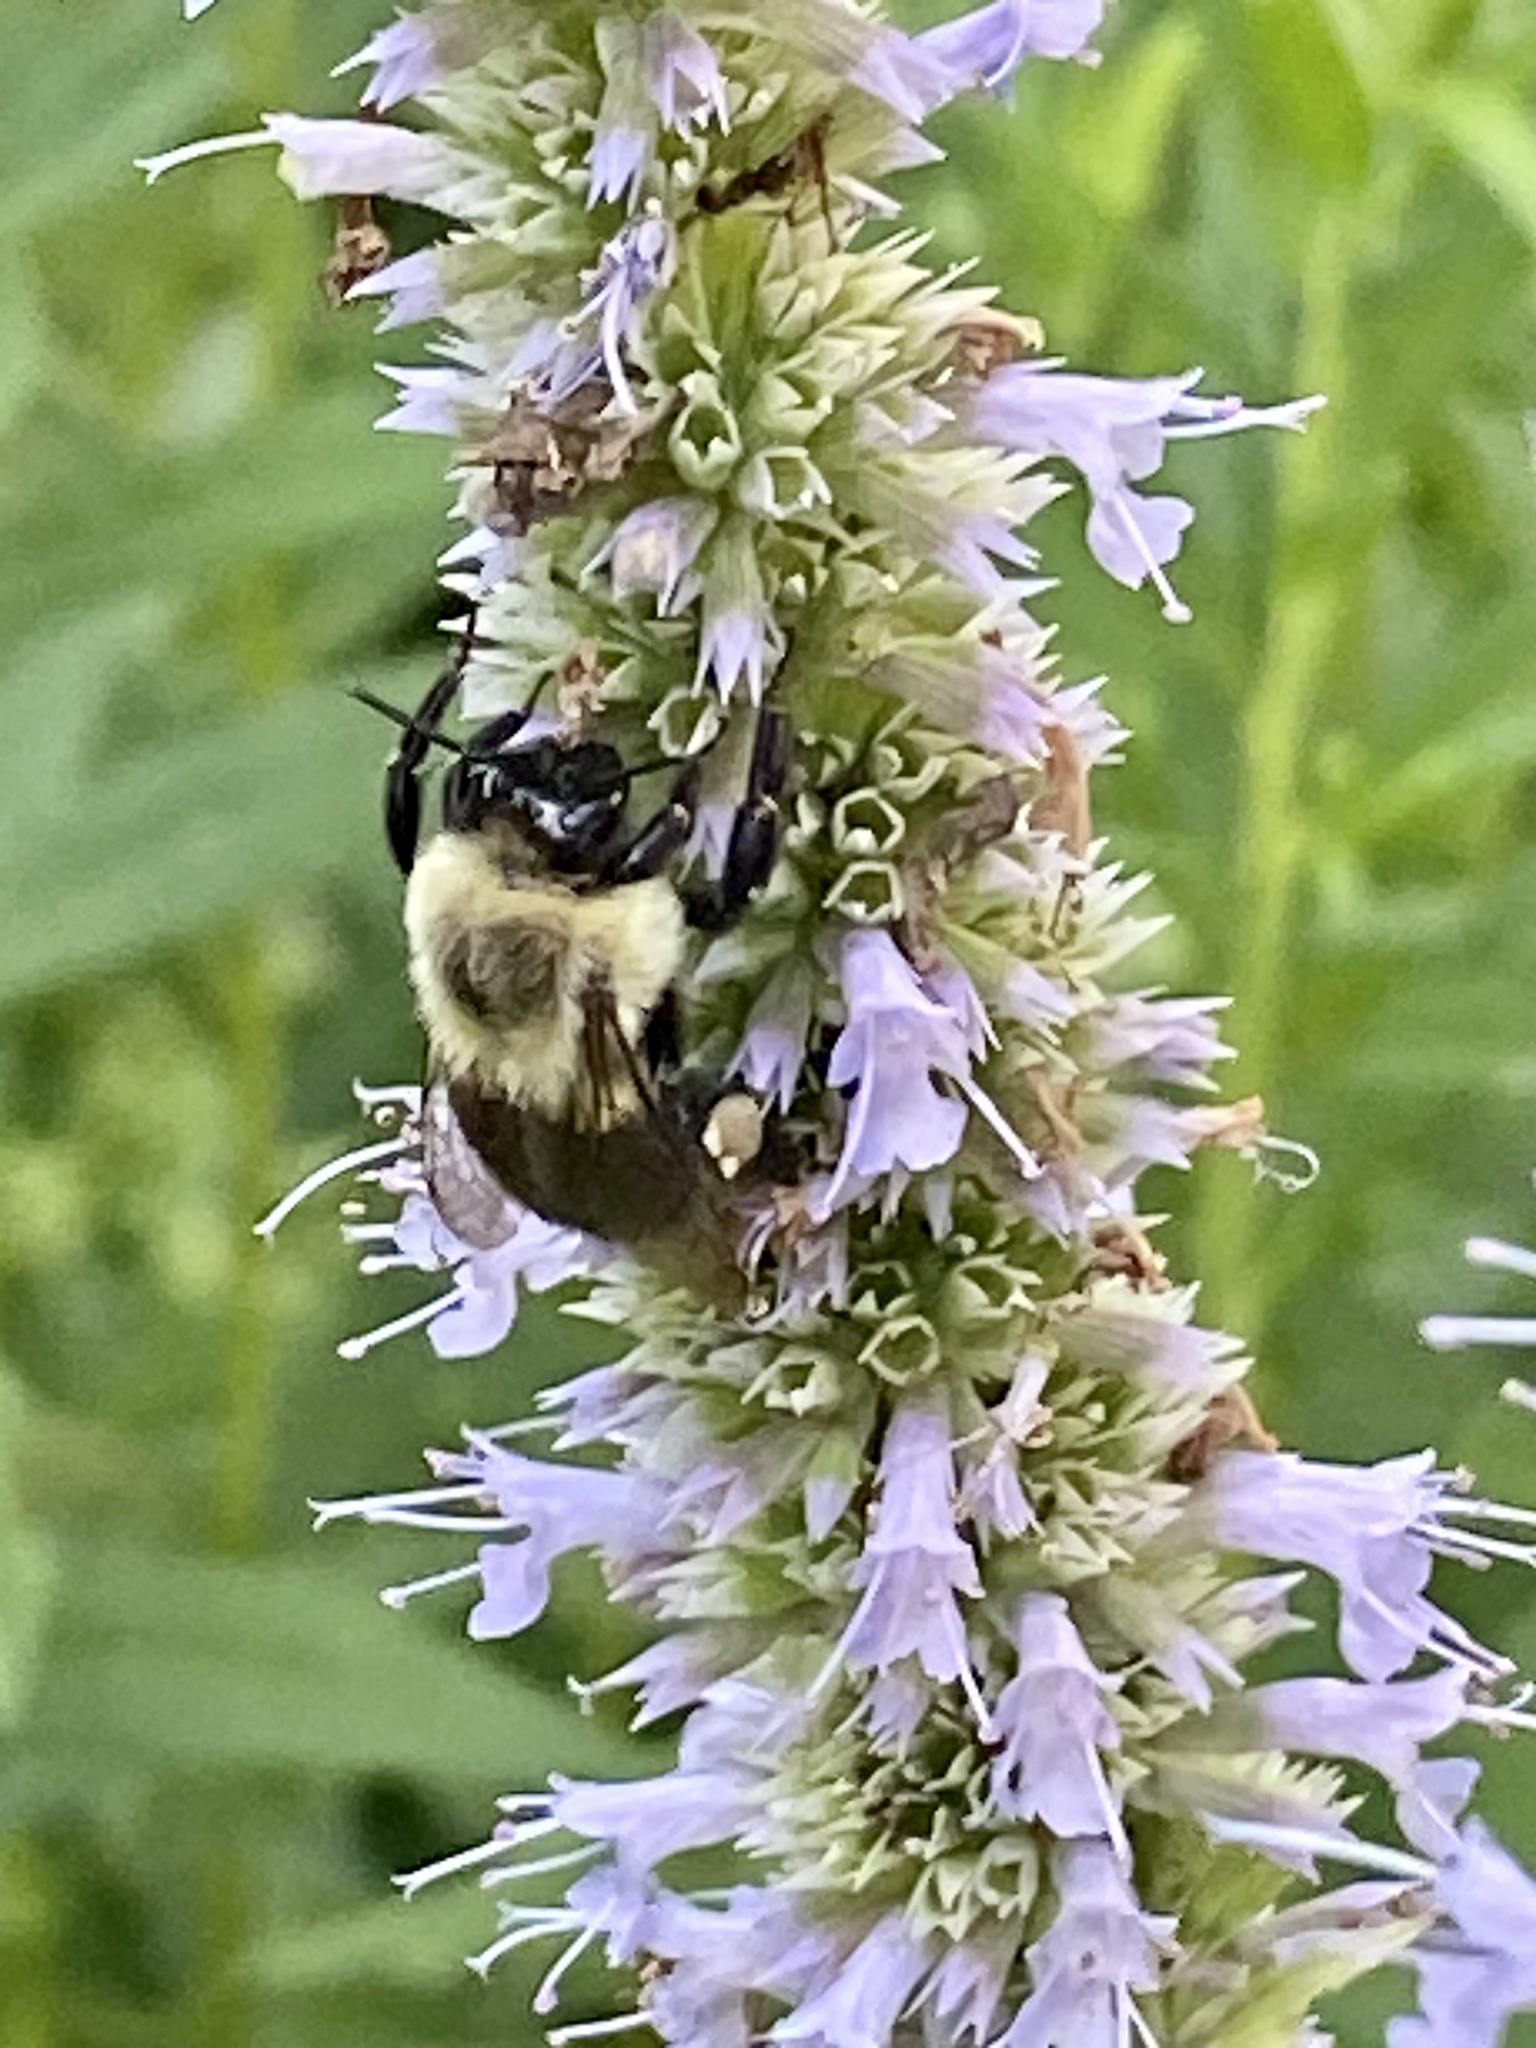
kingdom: Animalia
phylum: Arthropoda
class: Insecta
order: Hymenoptera
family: Apidae
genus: Bombus
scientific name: Bombus impatiens
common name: Common eastern bumble bee
